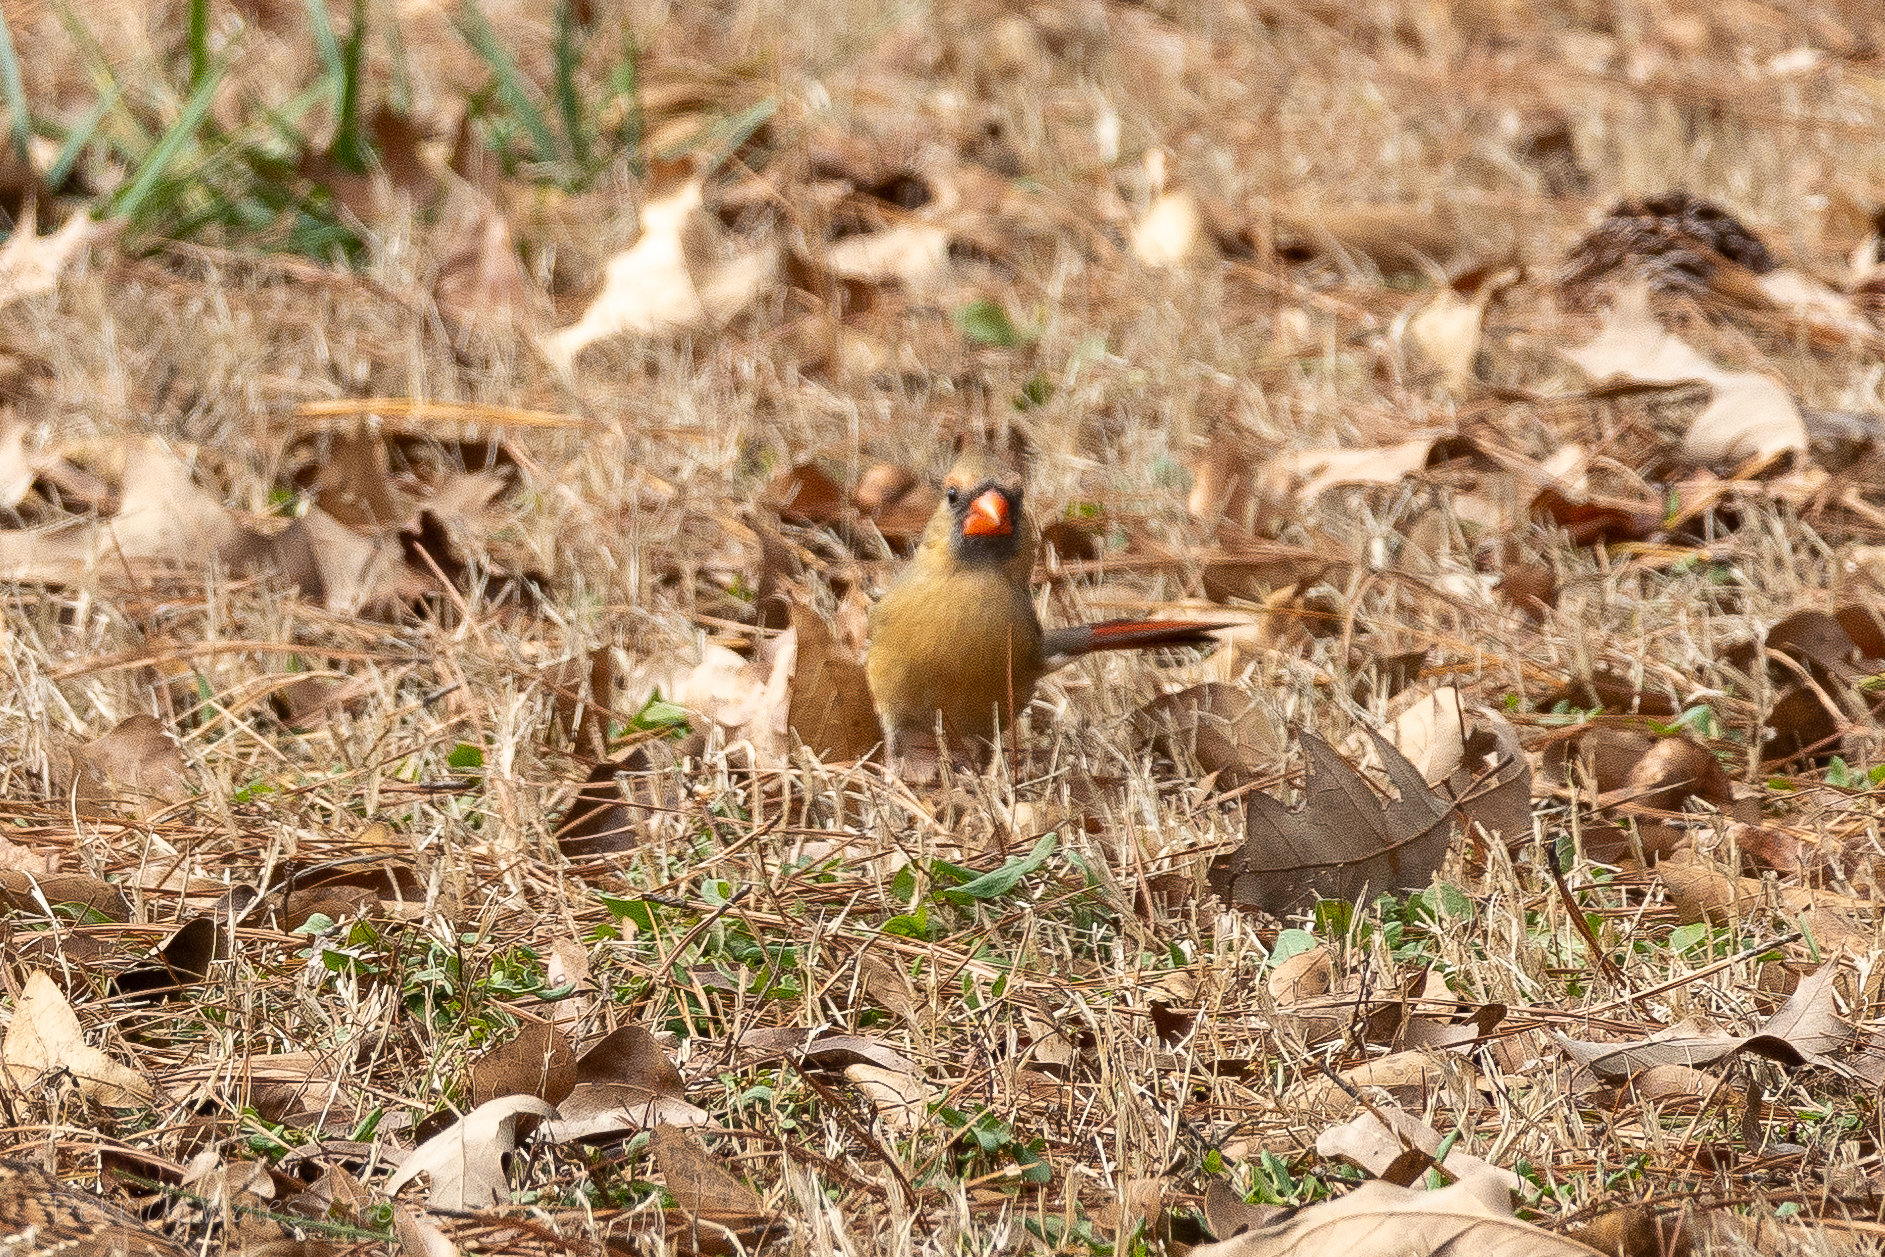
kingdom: Animalia
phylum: Chordata
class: Aves
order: Passeriformes
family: Cardinalidae
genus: Cardinalis
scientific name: Cardinalis cardinalis
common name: Northern cardinal
